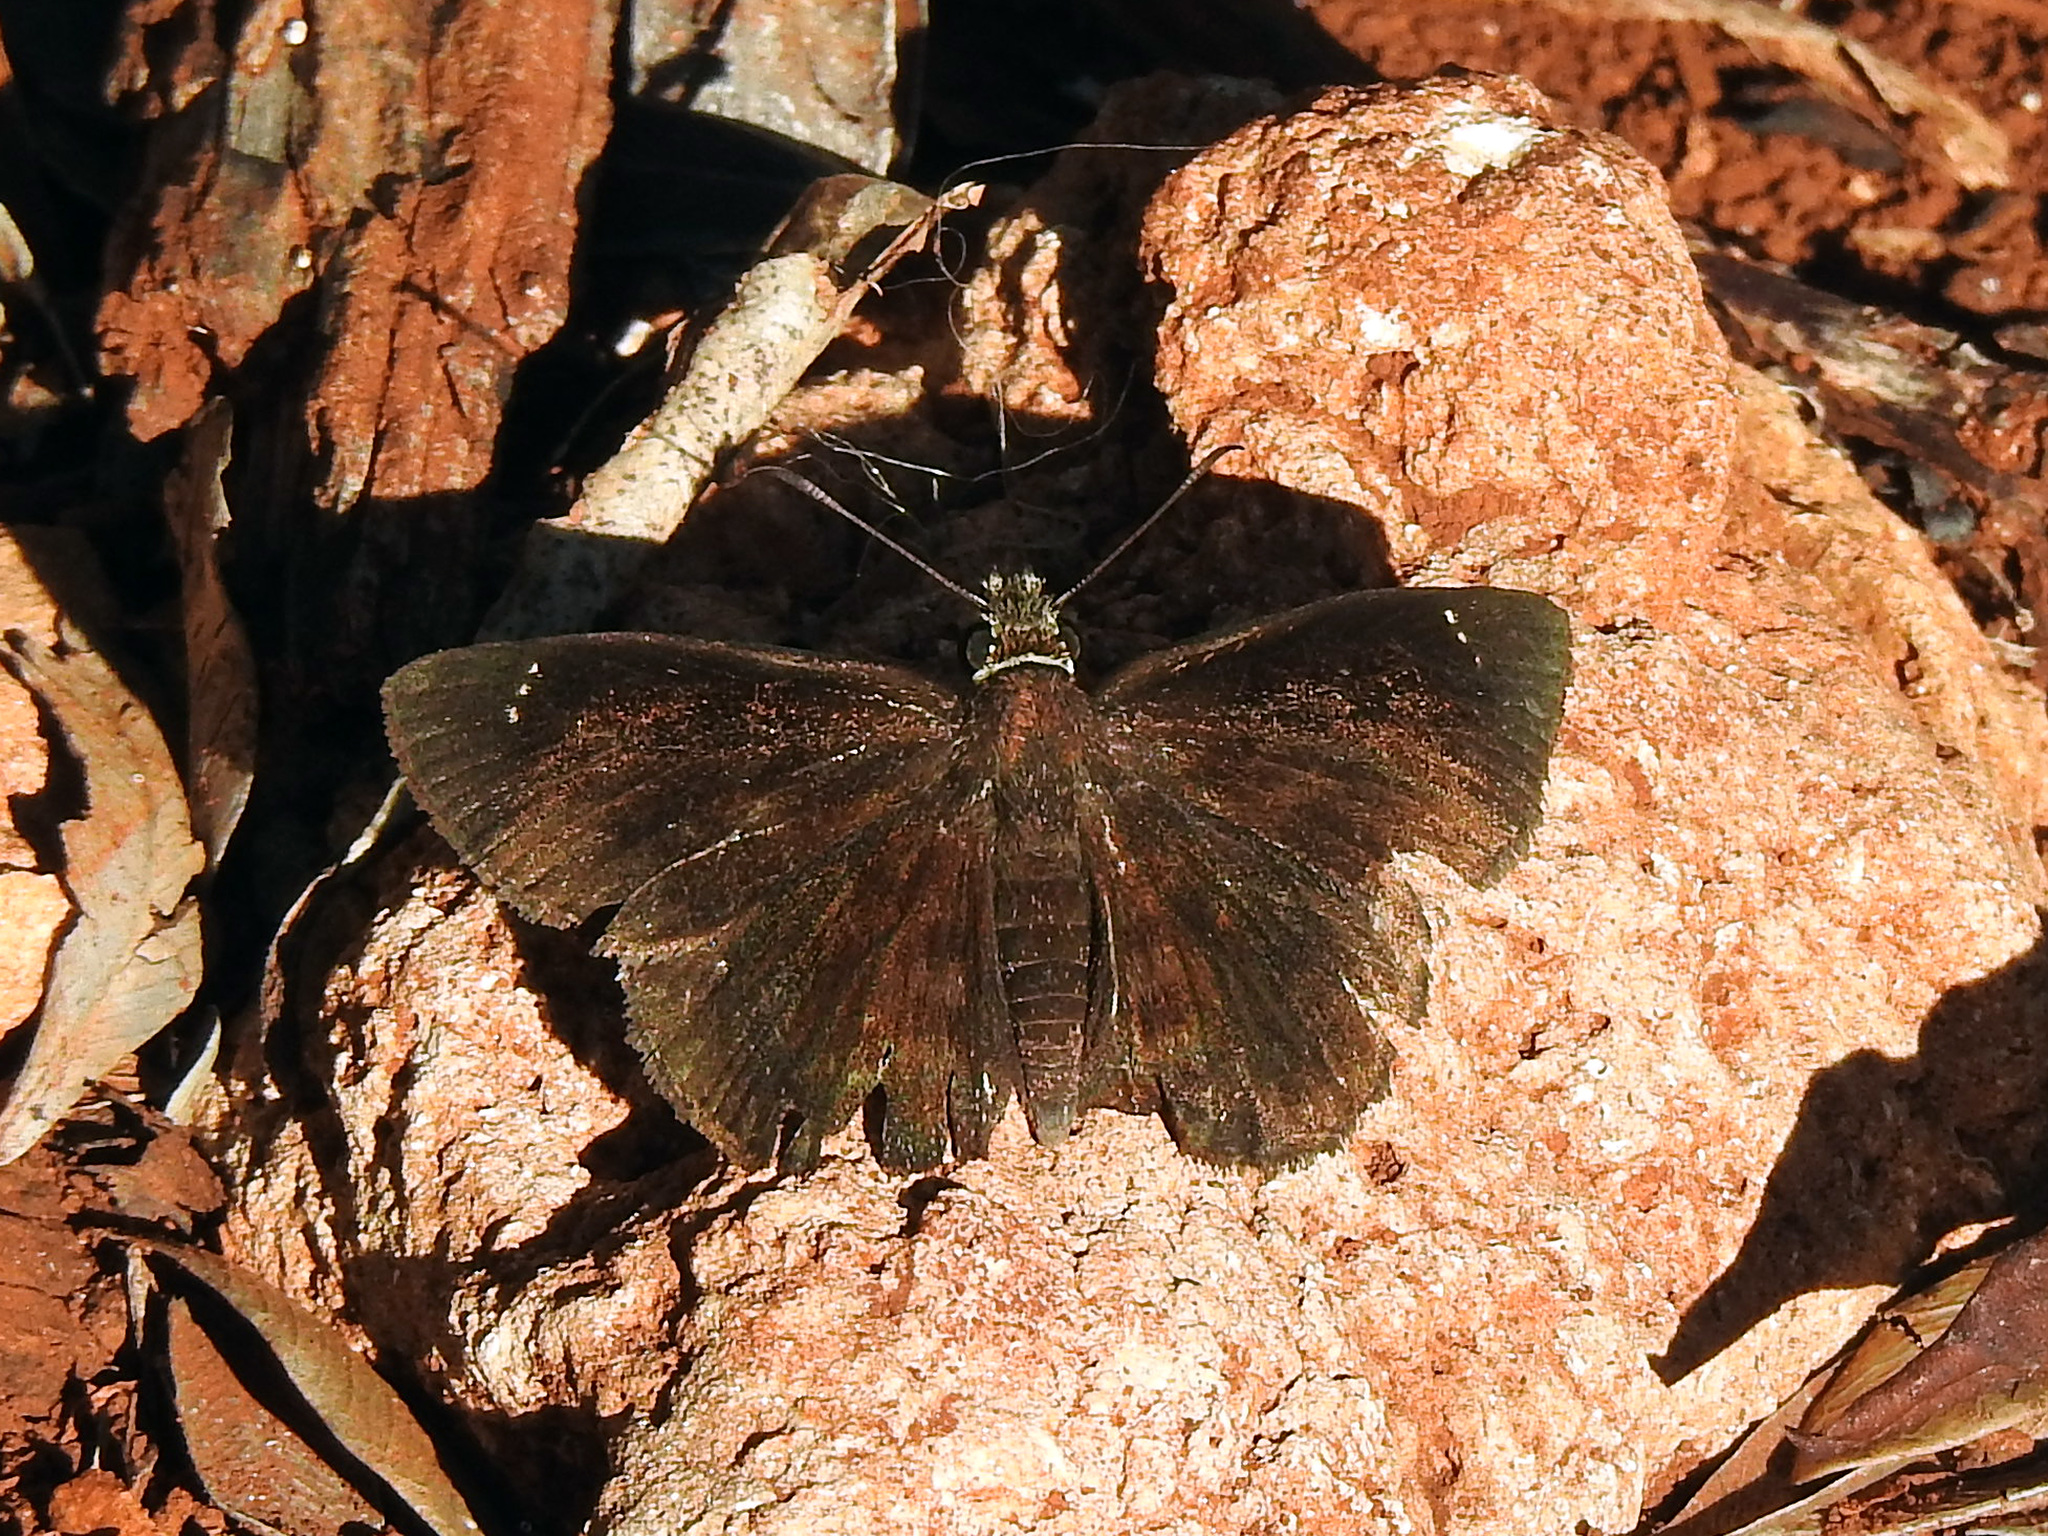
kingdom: Animalia
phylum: Arthropoda
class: Insecta
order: Lepidoptera
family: Hesperiidae
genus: Burca
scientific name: Burca braco
